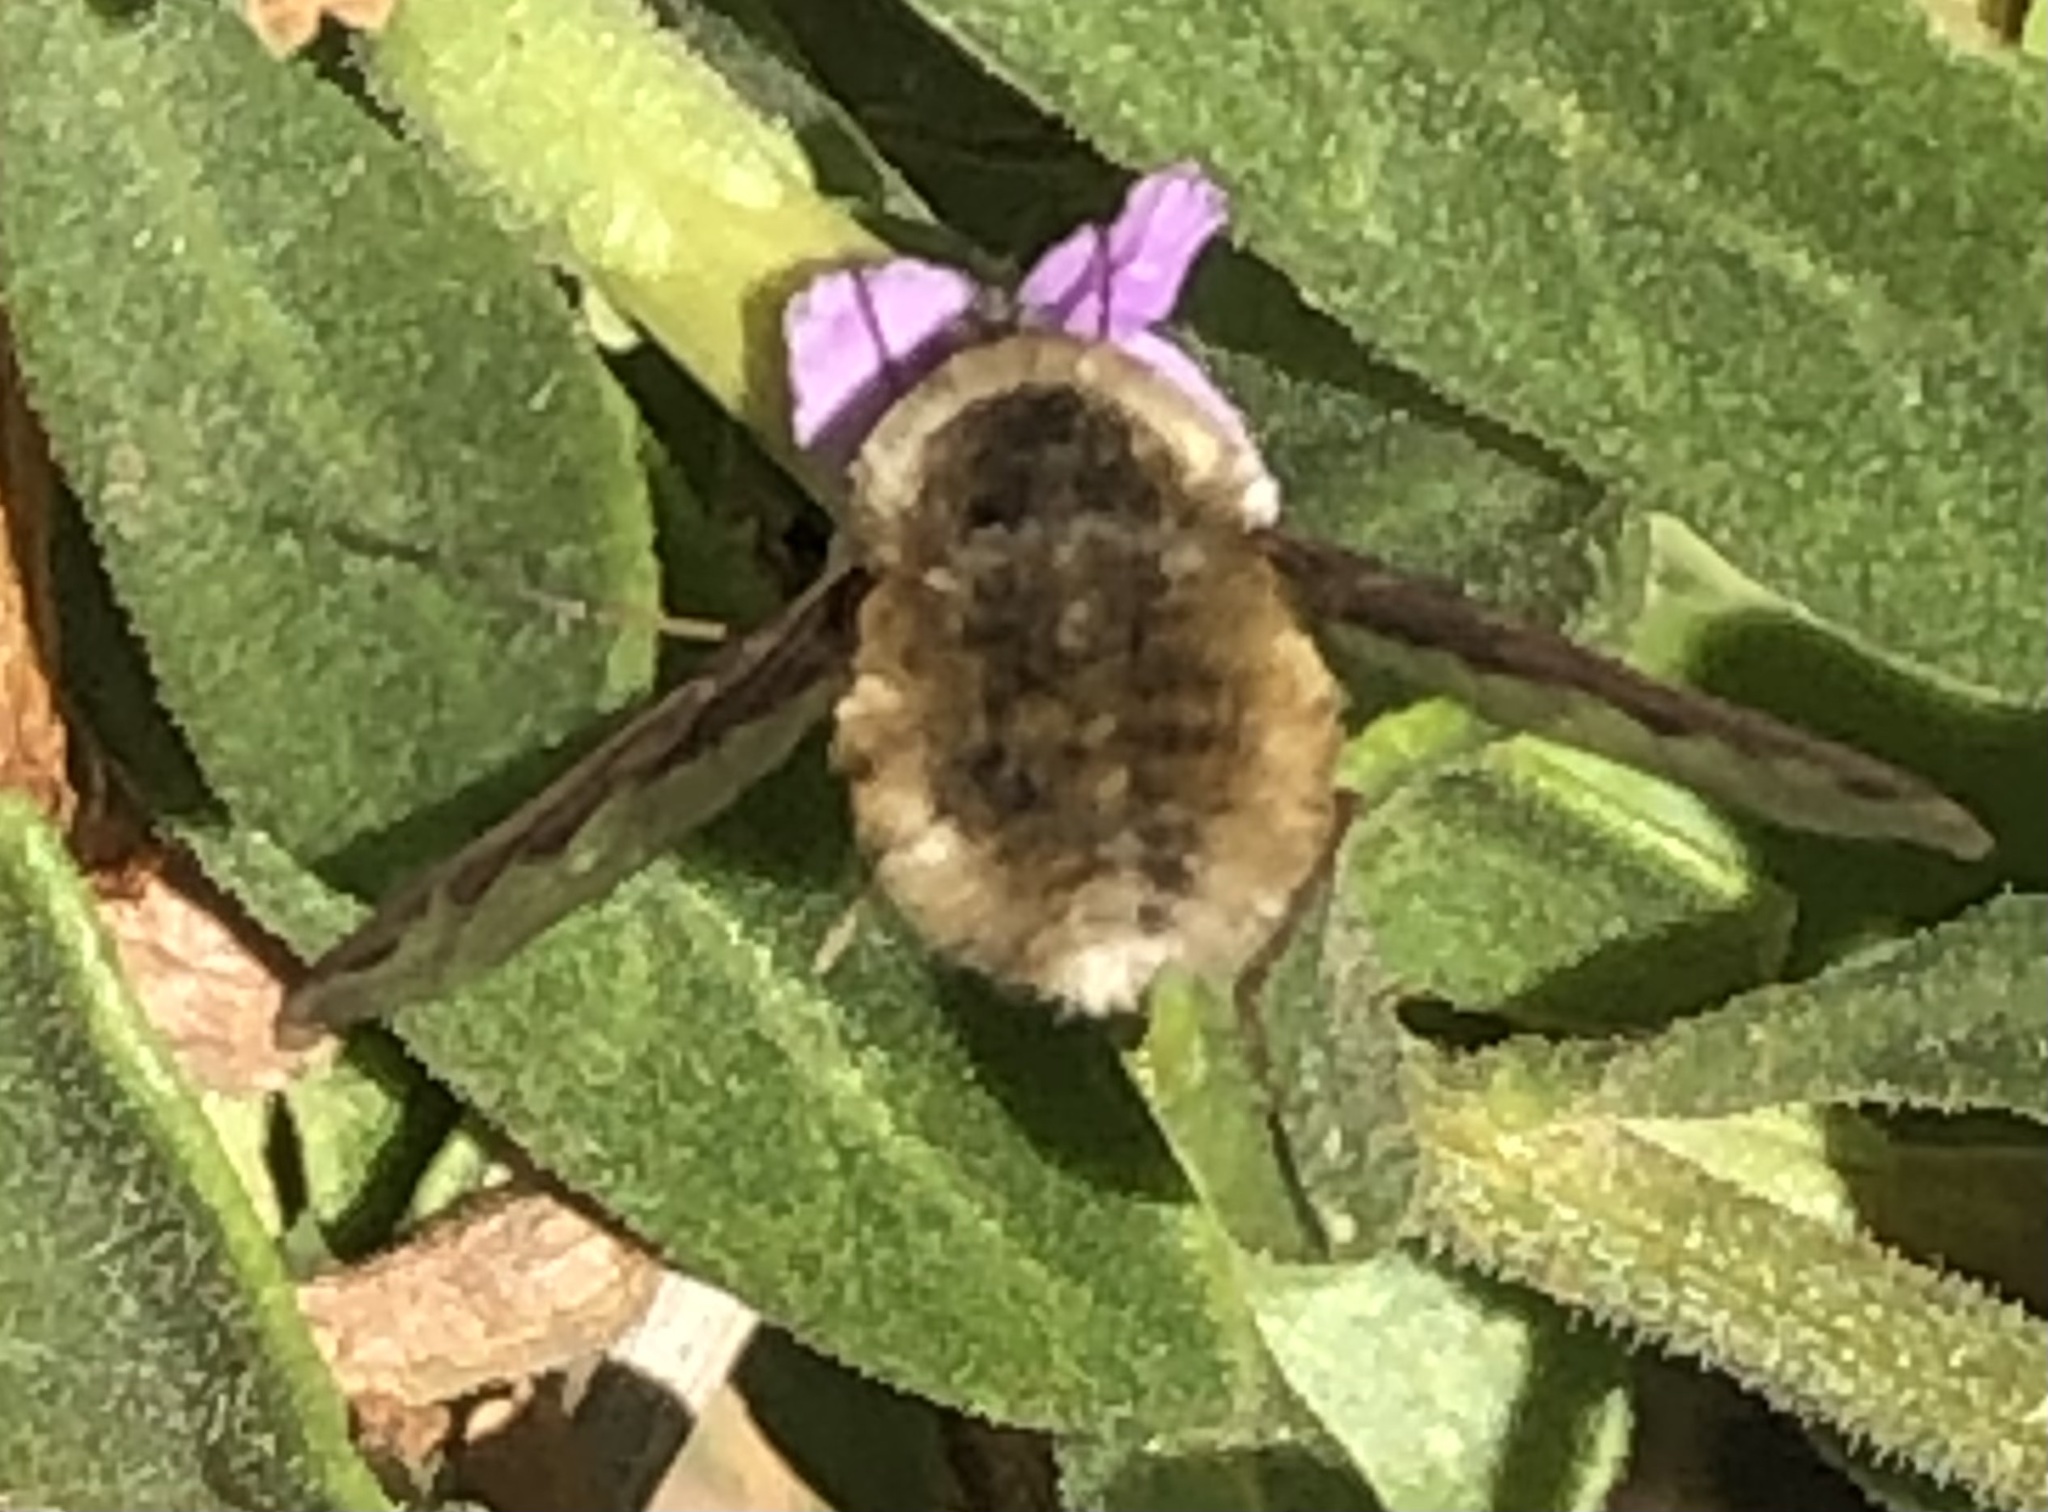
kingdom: Animalia
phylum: Arthropoda
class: Insecta
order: Diptera
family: Bombyliidae
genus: Bombylius
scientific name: Bombylius major
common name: Bee fly
